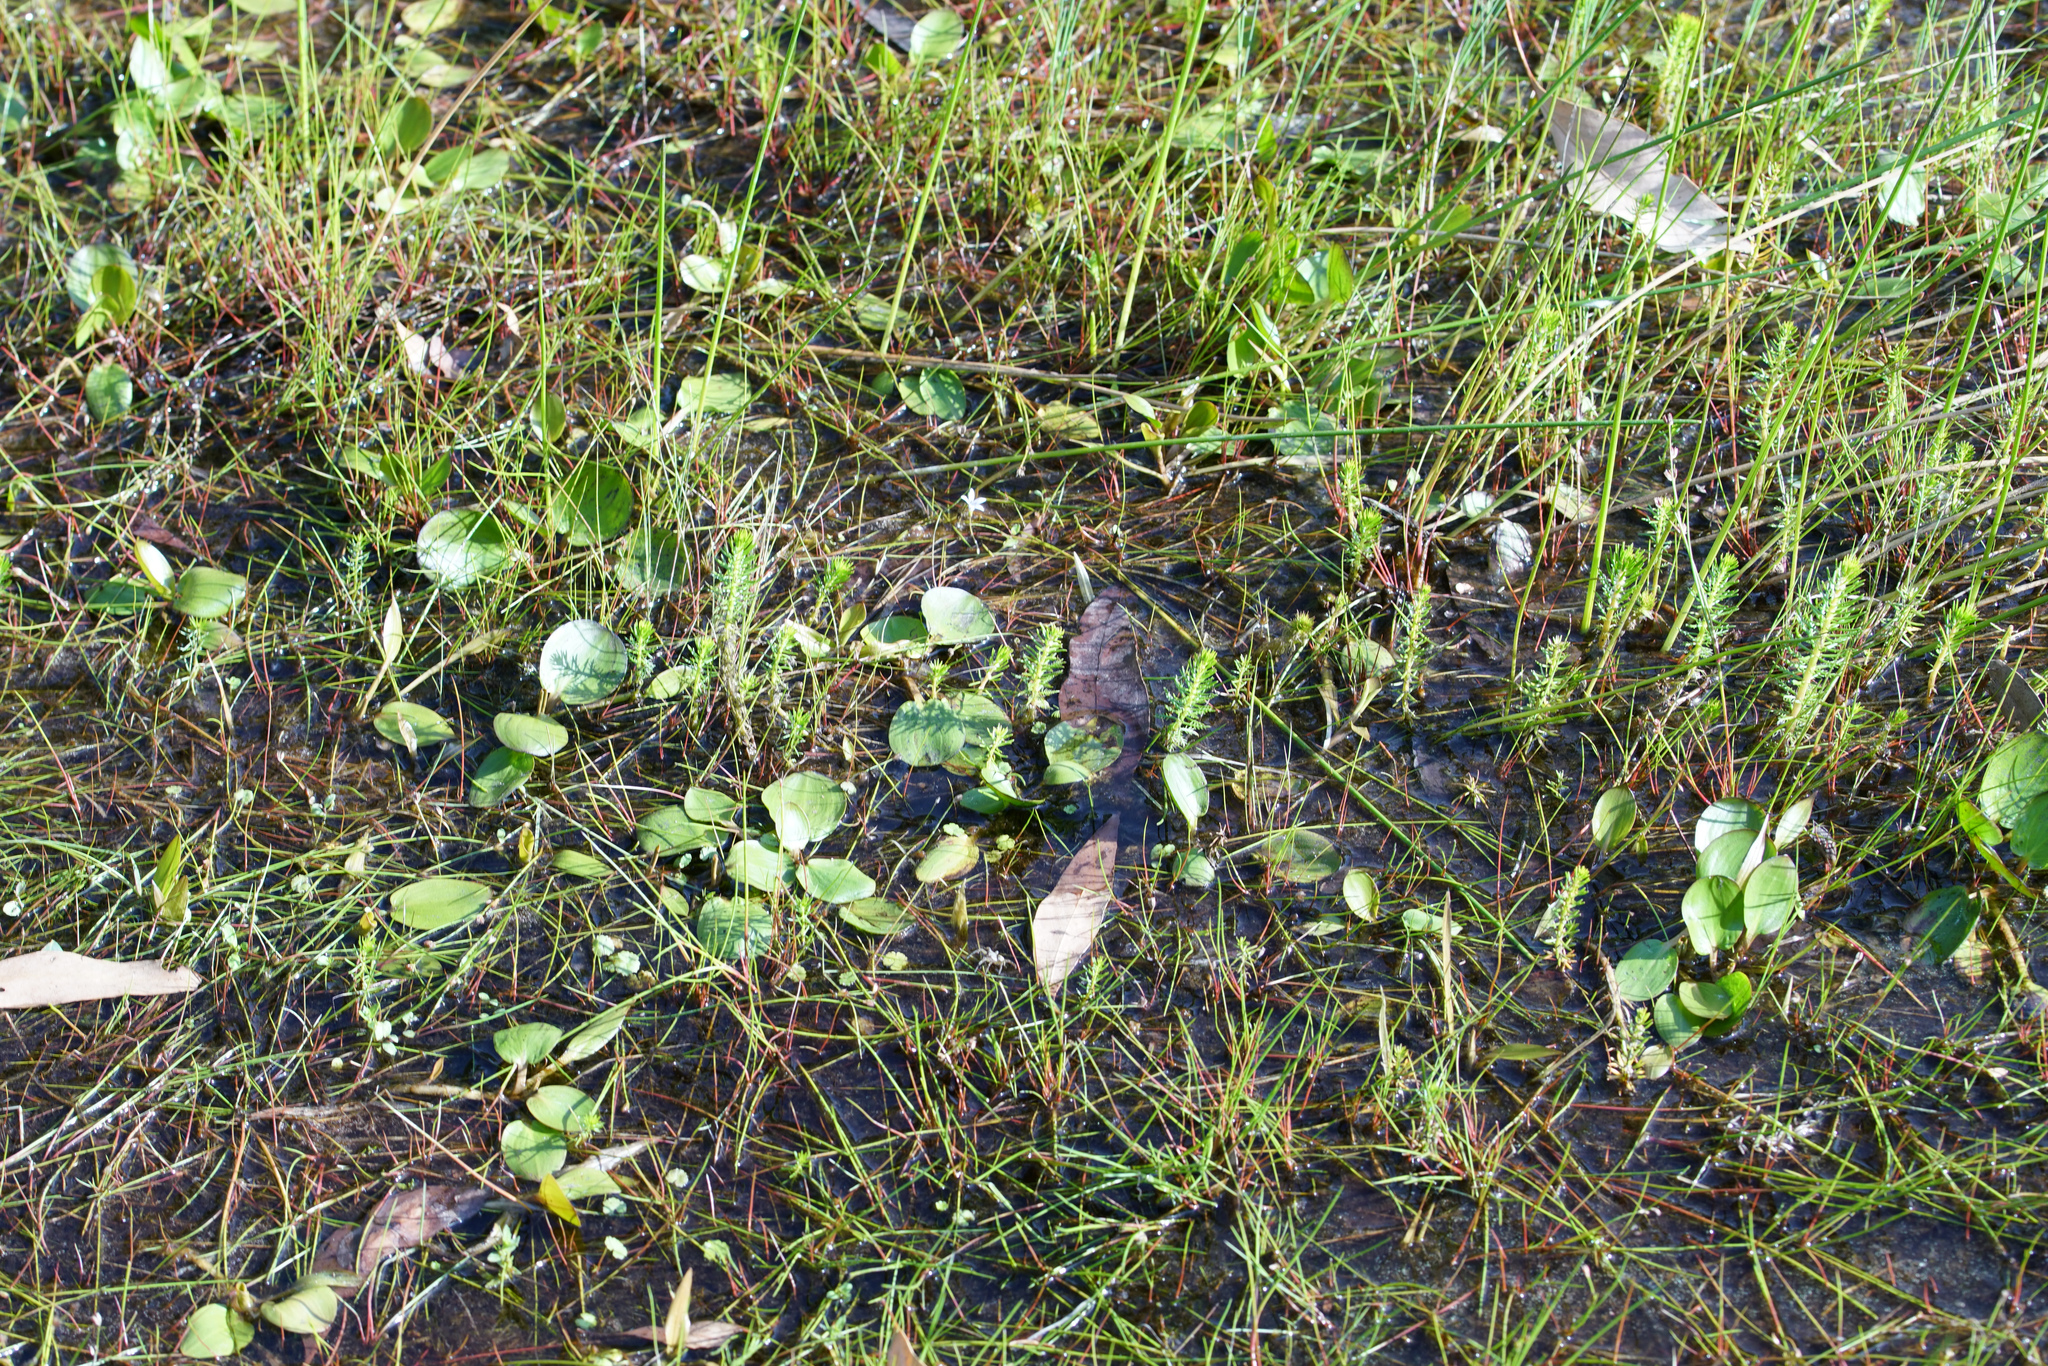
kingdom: Plantae
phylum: Tracheophyta
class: Liliopsida
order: Alismatales
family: Potamogetonaceae
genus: Potamogeton
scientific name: Potamogeton cheesemanii
